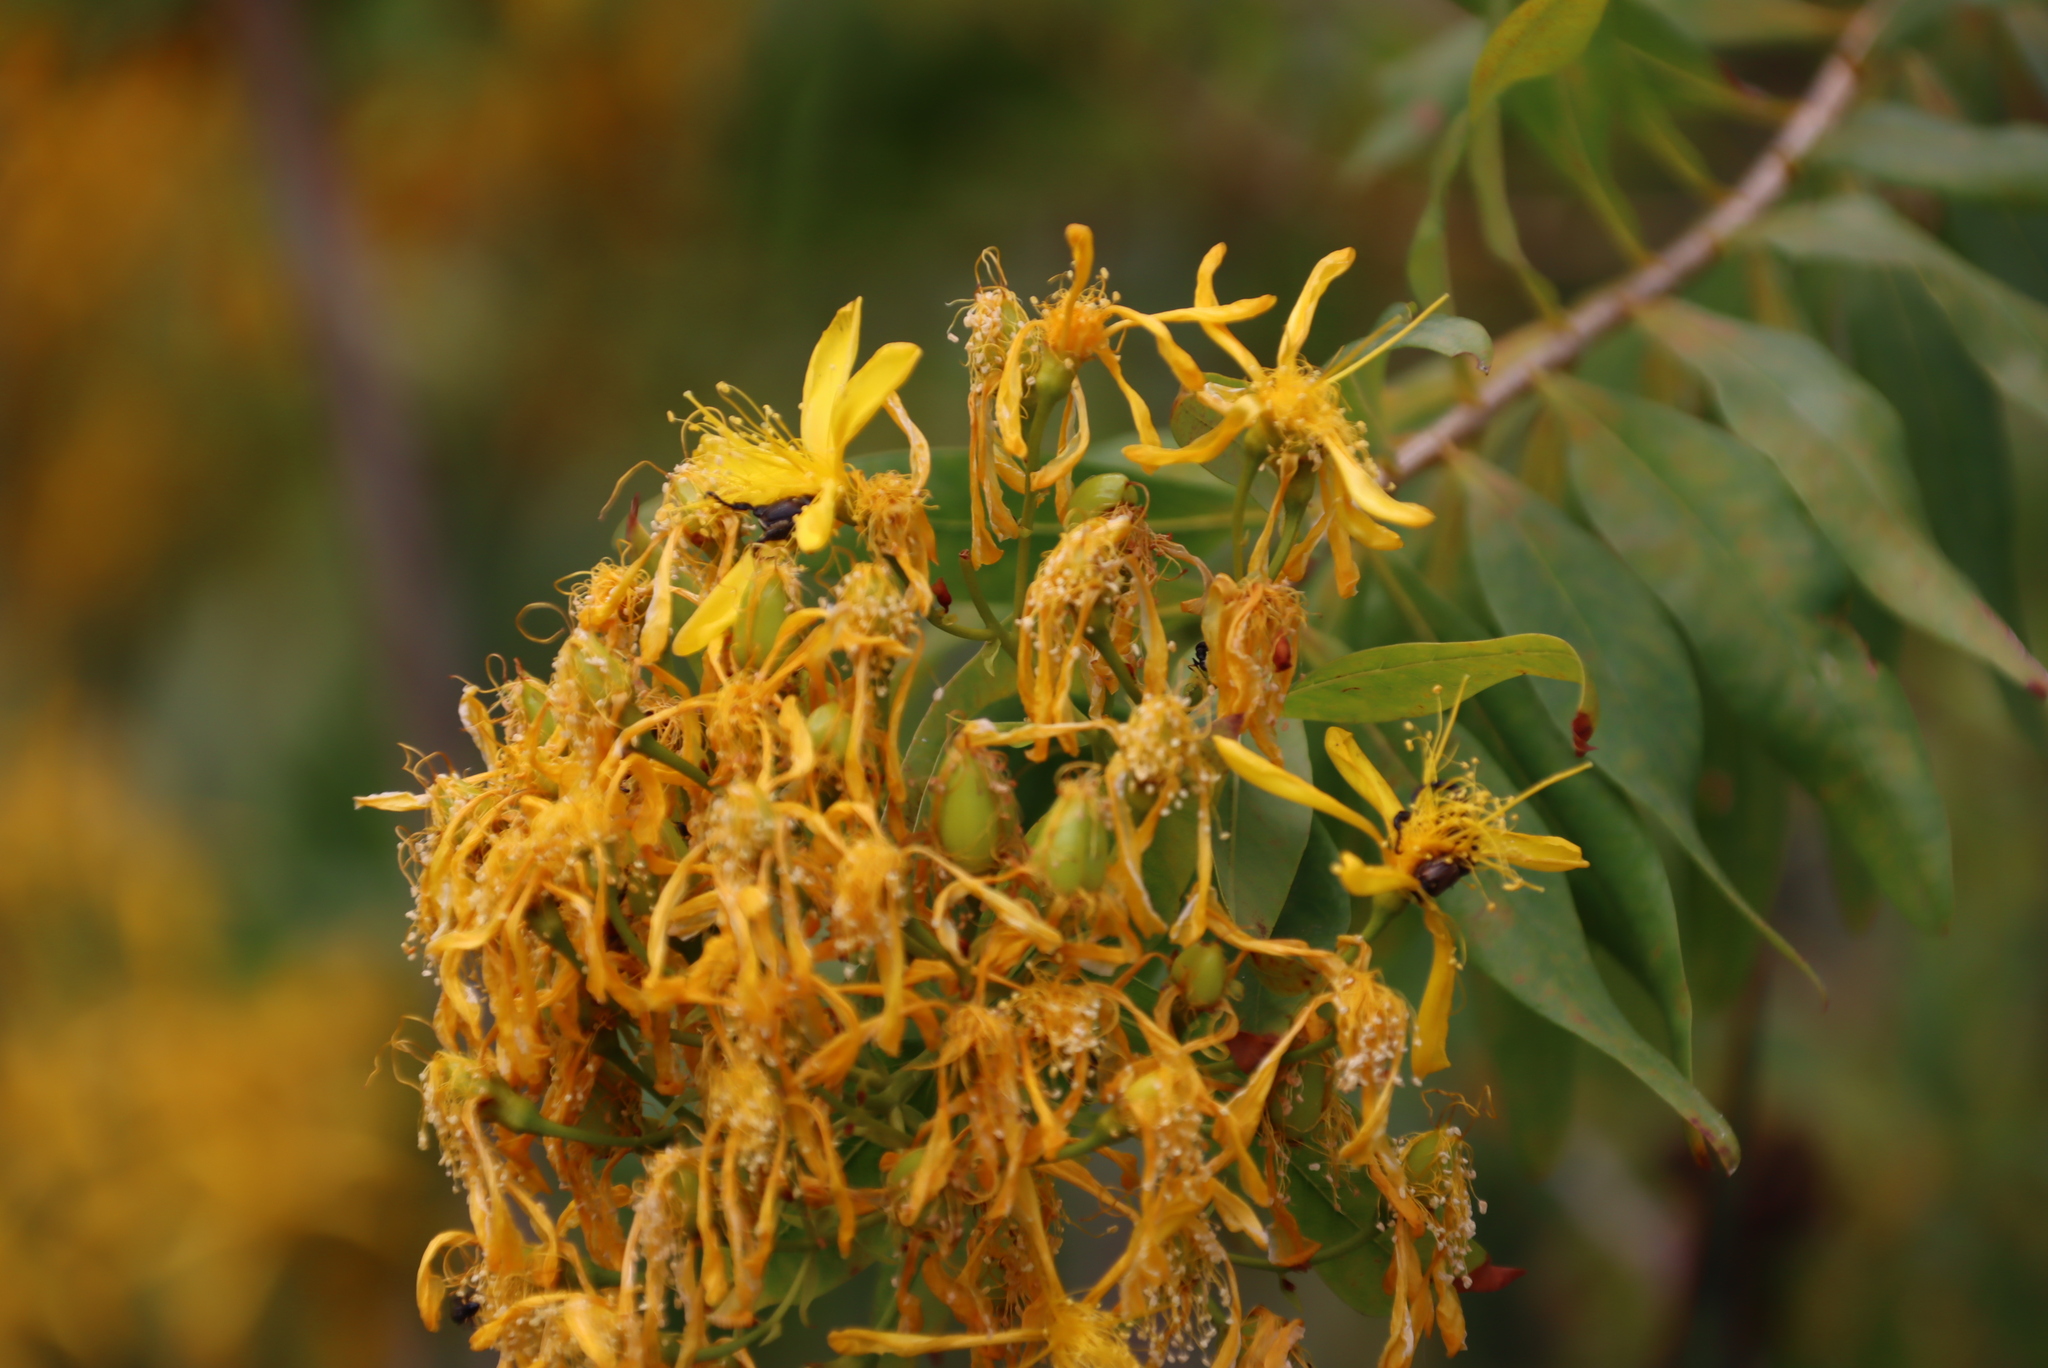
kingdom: Plantae
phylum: Tracheophyta
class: Magnoliopsida
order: Malpighiales
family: Hypericaceae
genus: Hypericum
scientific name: Hypericum canariense
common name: Canary island st. johnswort
